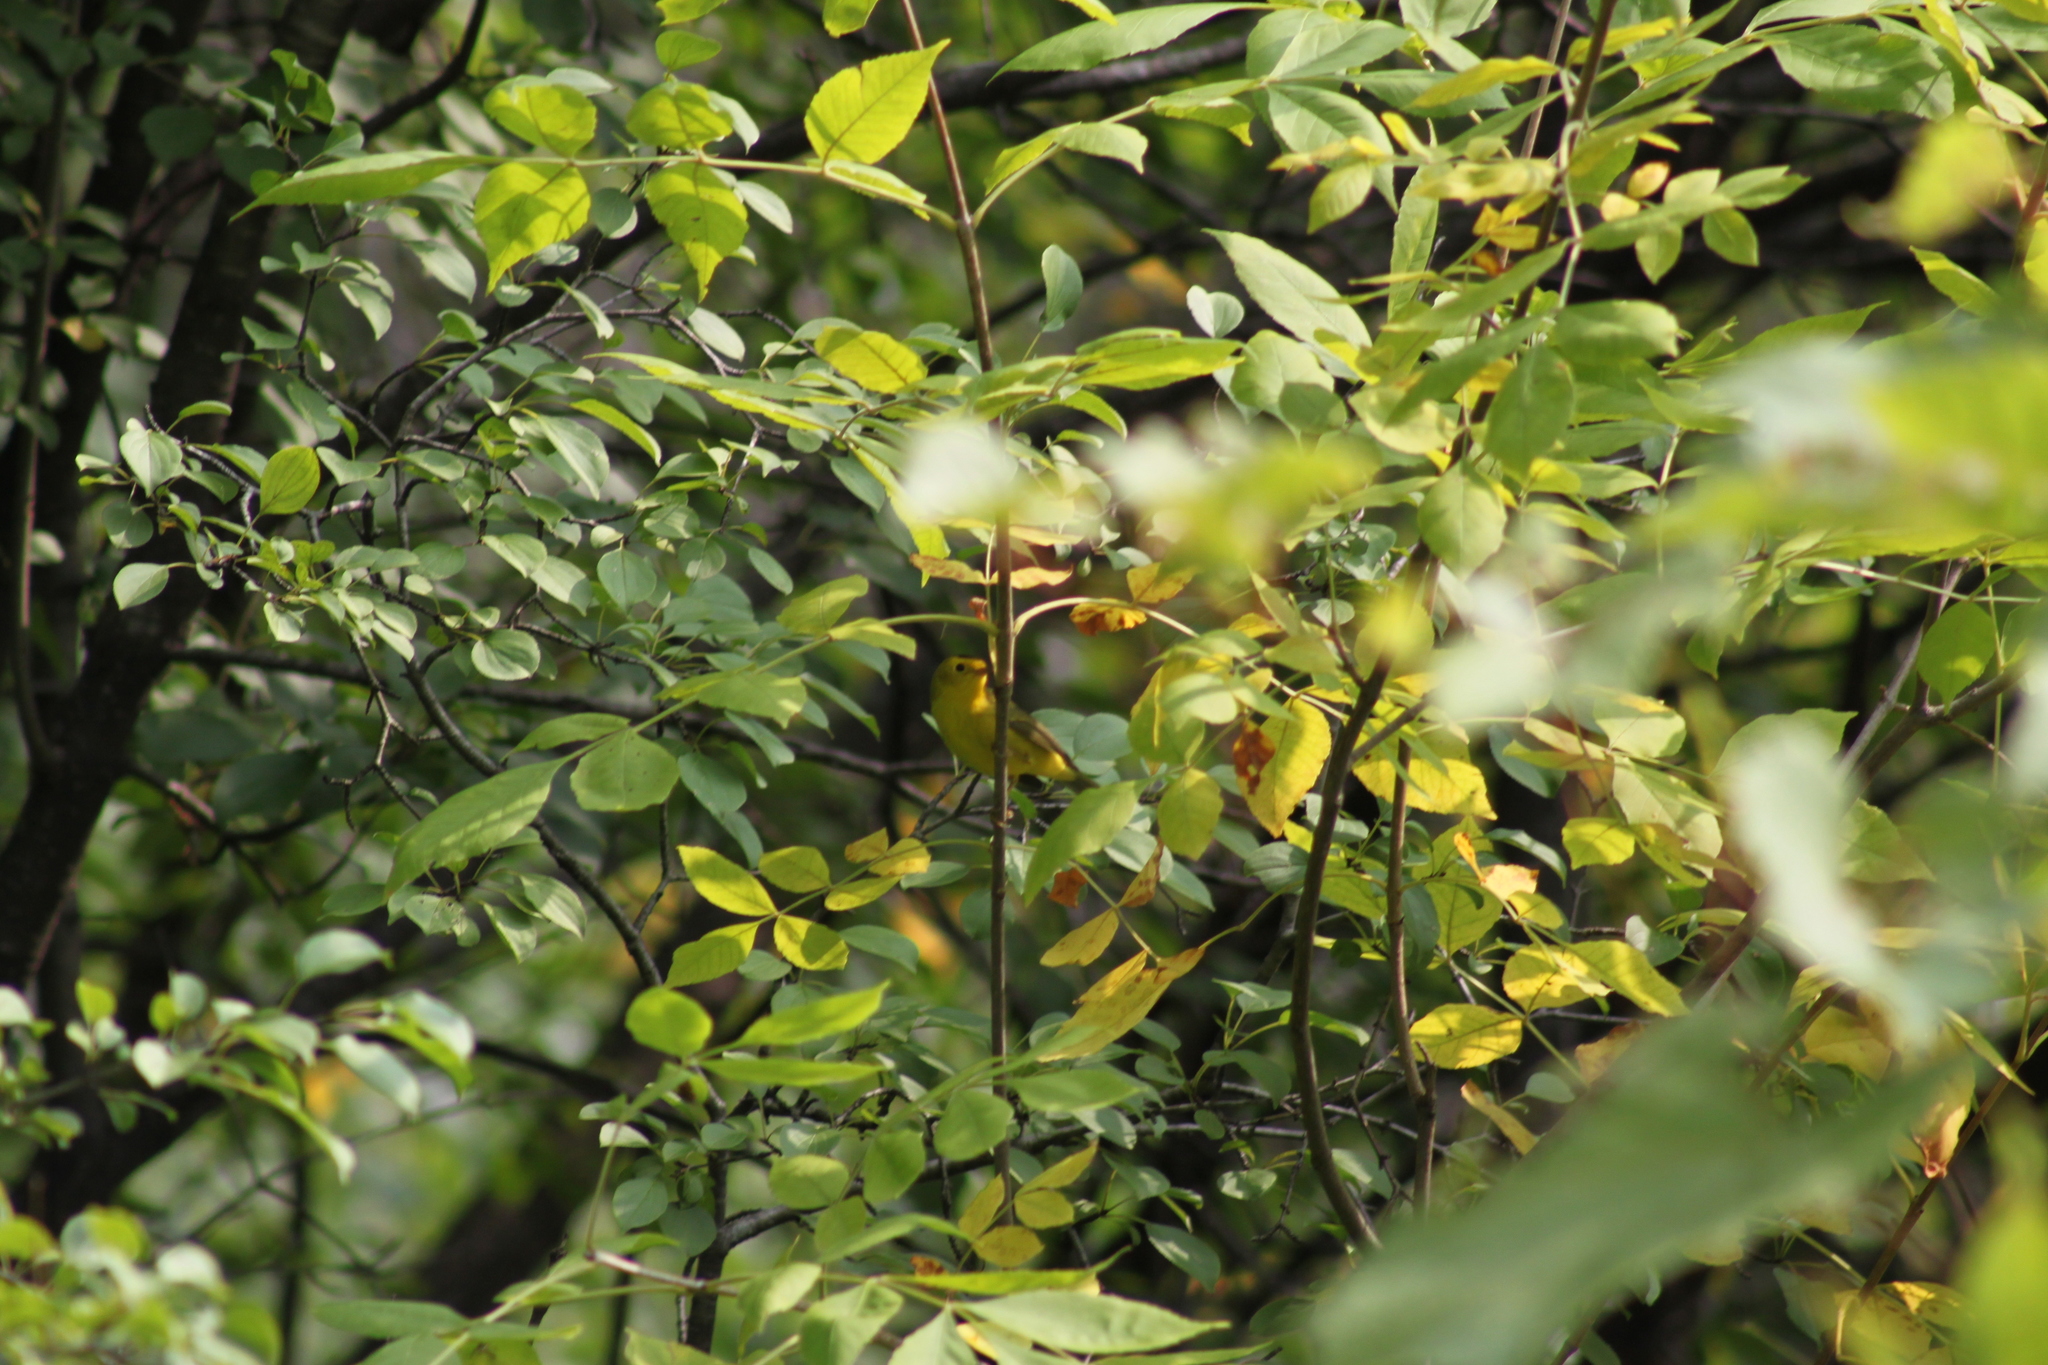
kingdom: Animalia
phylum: Chordata
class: Aves
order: Passeriformes
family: Parulidae
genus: Cardellina
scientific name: Cardellina pusilla
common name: Wilson's warbler
